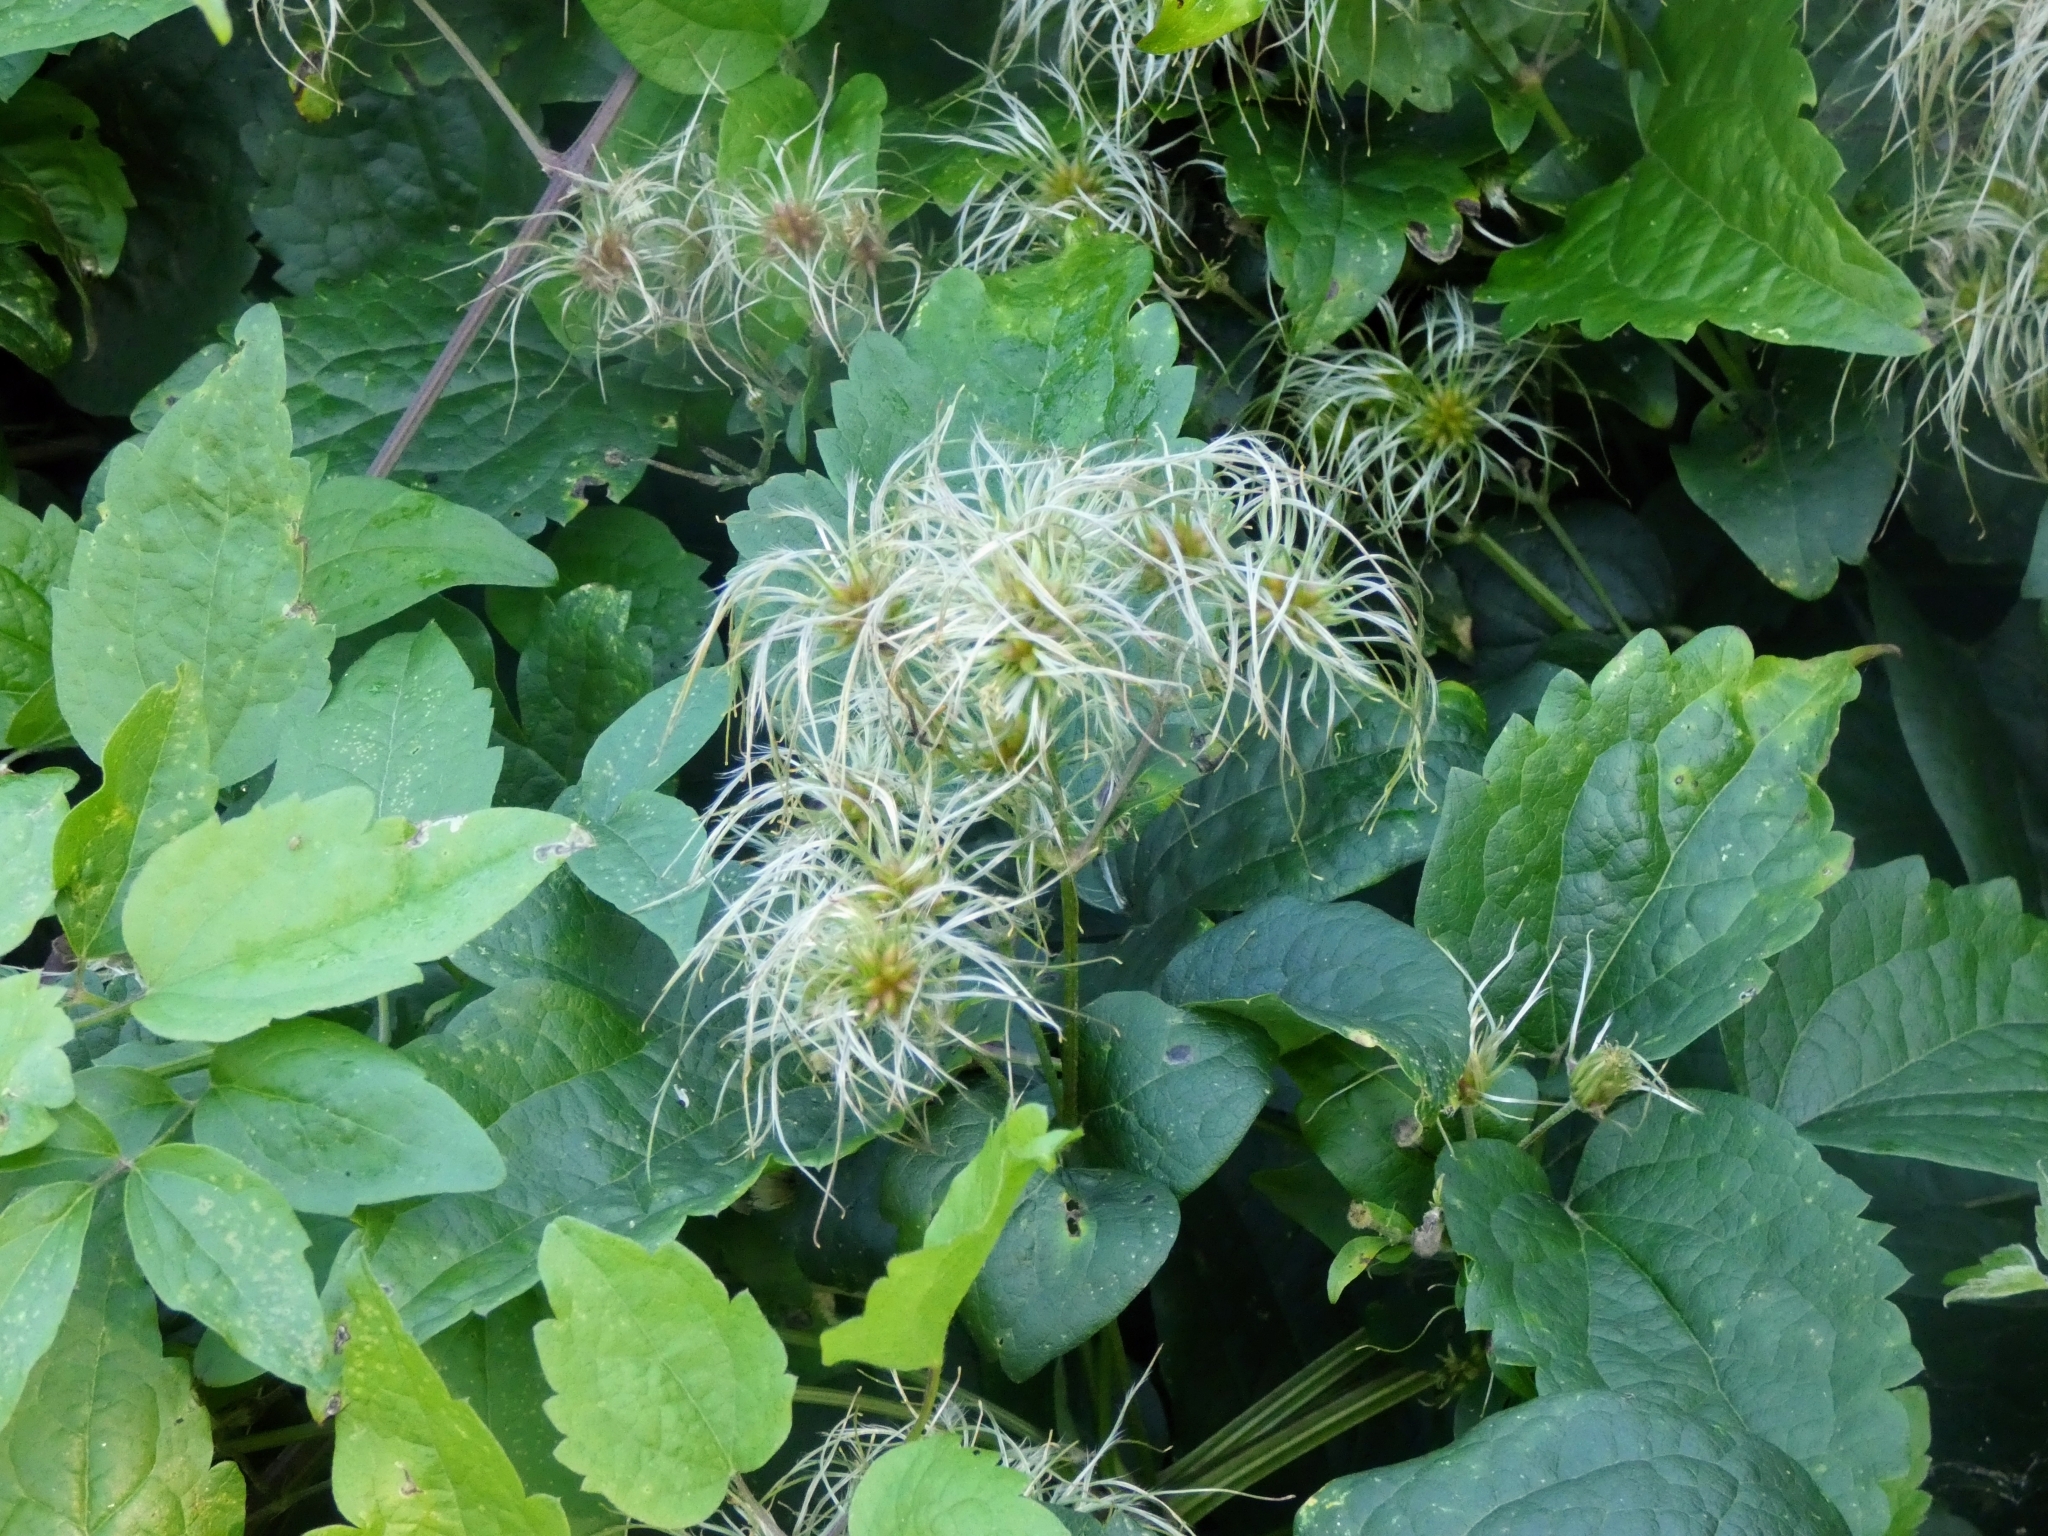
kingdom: Plantae
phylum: Tracheophyta
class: Magnoliopsida
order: Ranunculales
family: Ranunculaceae
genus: Clematis
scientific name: Clematis vitalba
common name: Evergreen clematis
